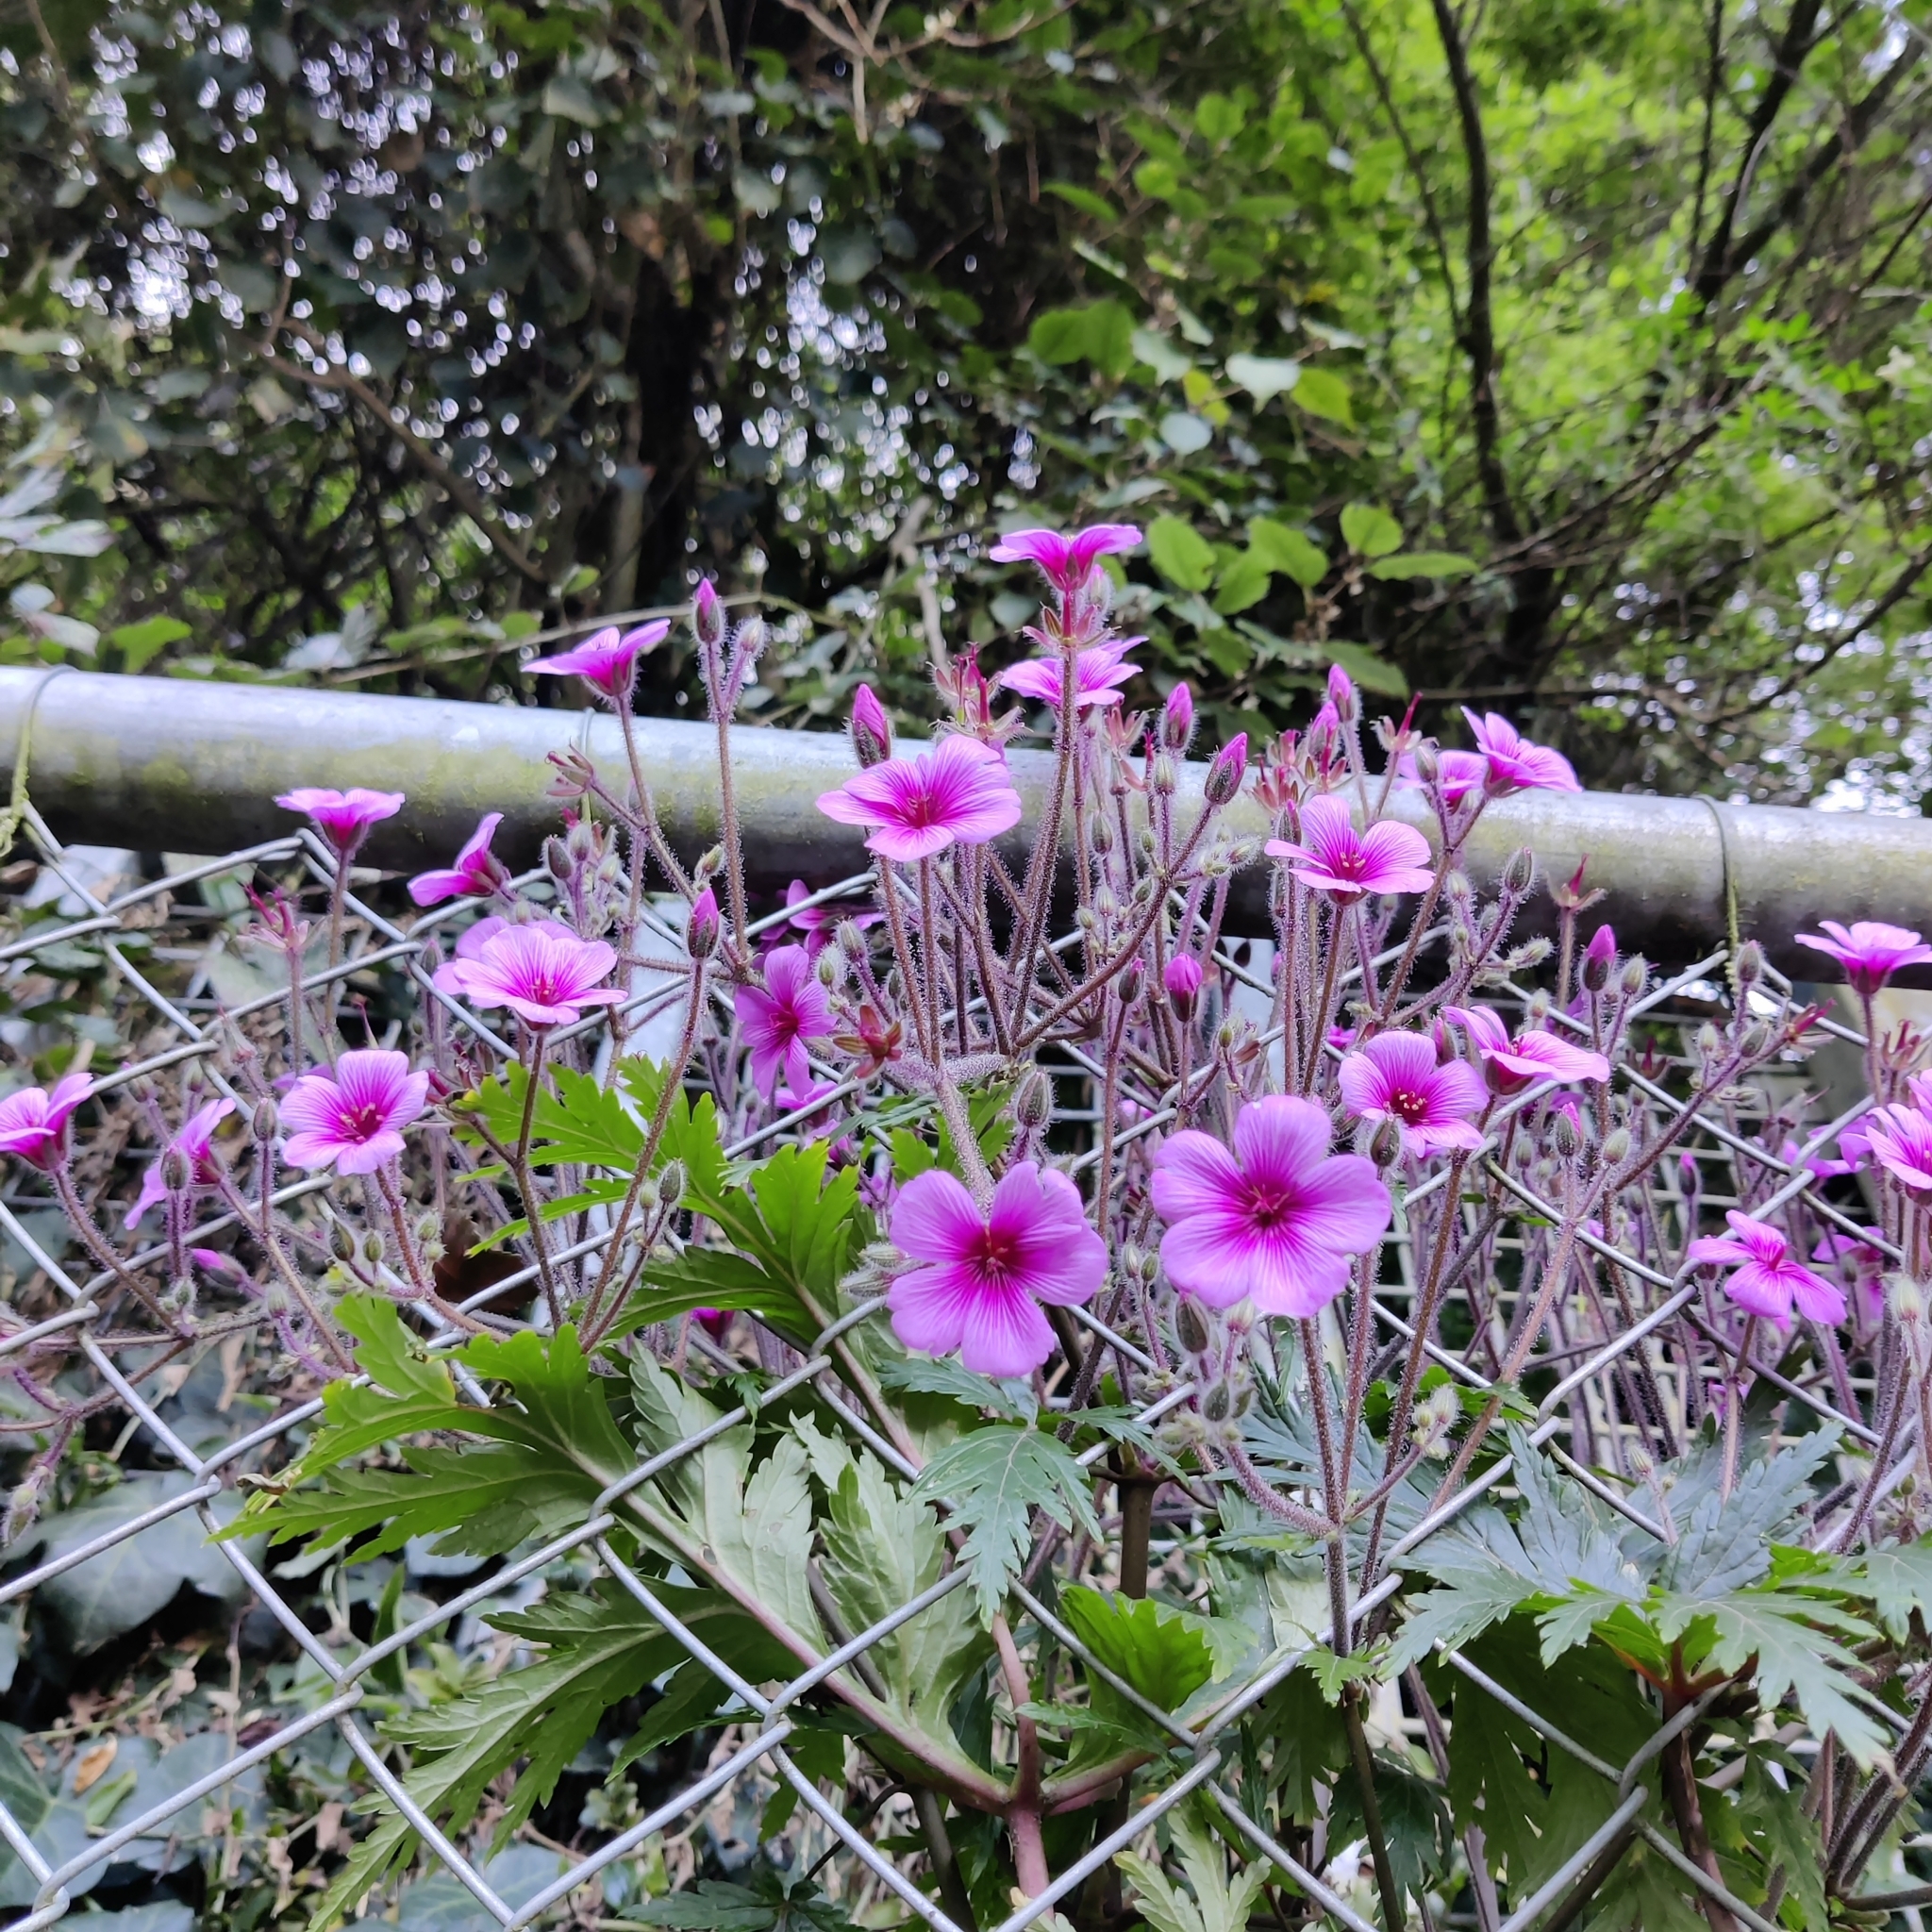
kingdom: Plantae
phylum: Tracheophyta
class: Magnoliopsida
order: Geraniales
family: Geraniaceae
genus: Geranium
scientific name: Geranium maderense
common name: Giant herb-robert
